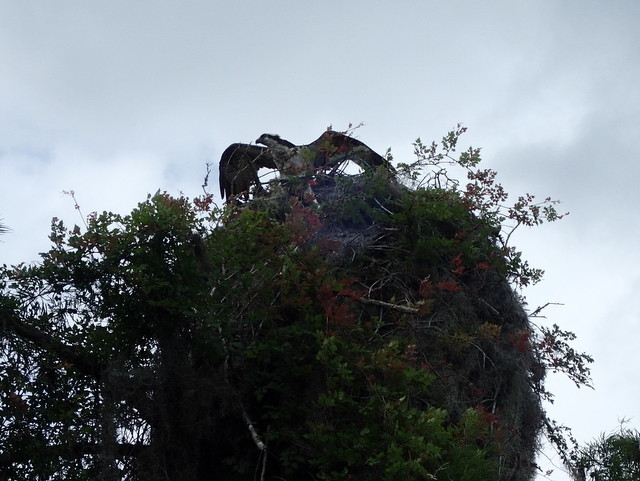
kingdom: Animalia
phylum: Chordata
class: Aves
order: Accipitriformes
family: Pandionidae
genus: Pandion
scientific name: Pandion haliaetus
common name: Osprey
